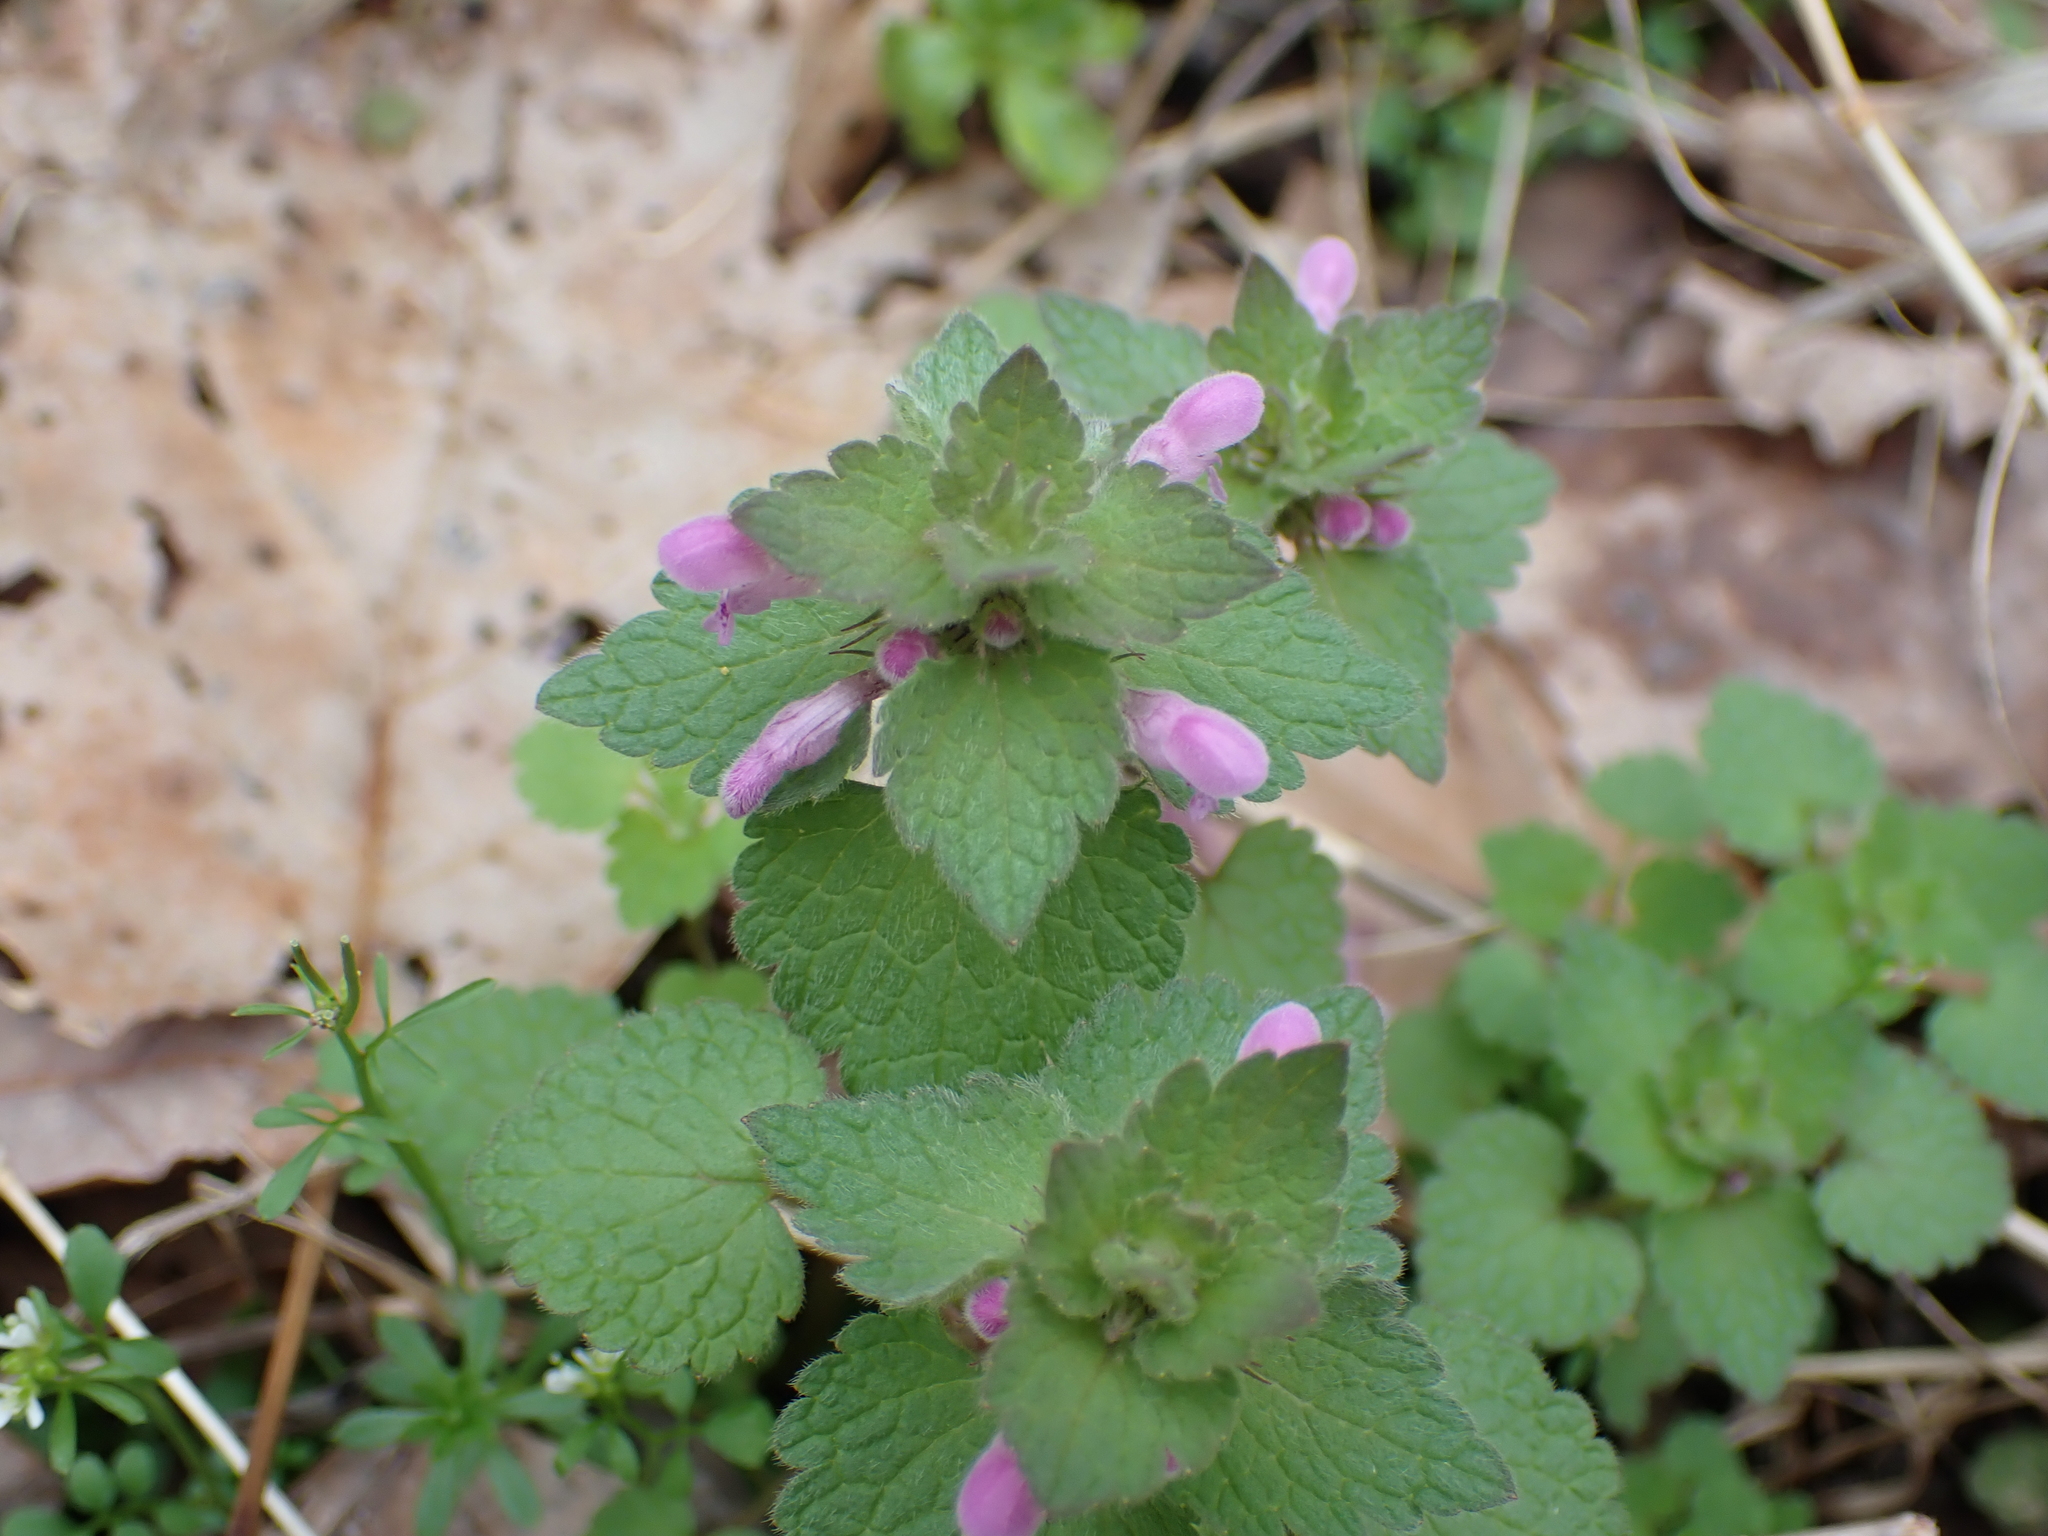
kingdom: Plantae
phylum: Tracheophyta
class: Magnoliopsida
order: Lamiales
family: Lamiaceae
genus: Lamium
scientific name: Lamium purpureum
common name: Red dead-nettle
